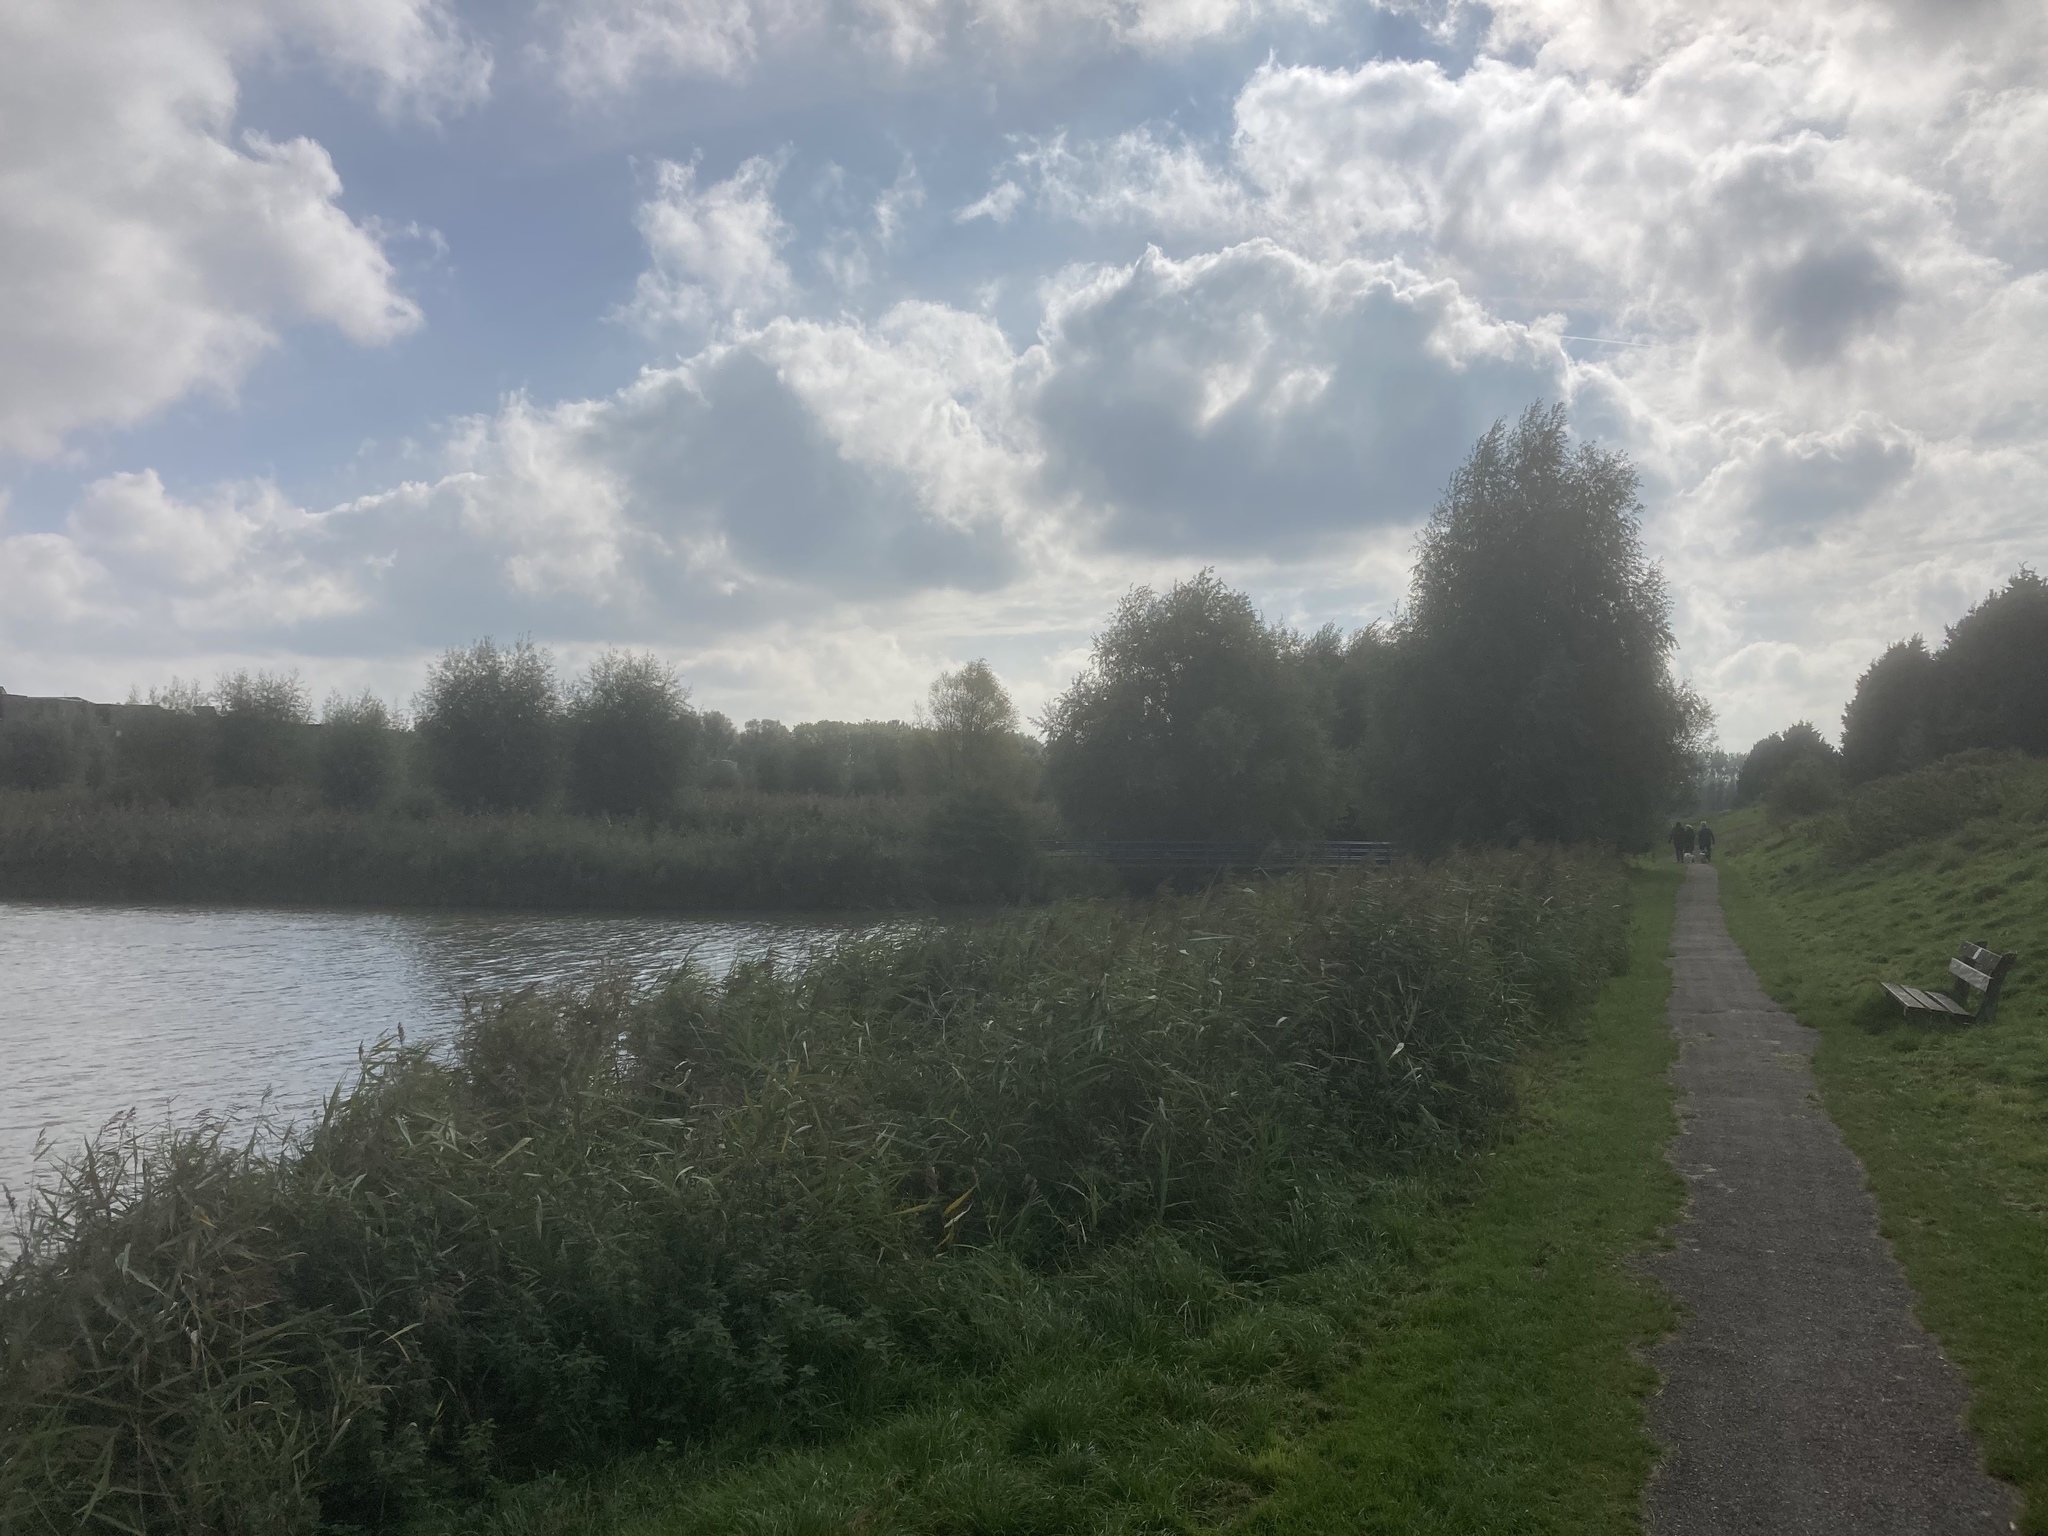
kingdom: Plantae
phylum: Tracheophyta
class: Liliopsida
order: Poales
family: Poaceae
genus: Phragmites
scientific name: Phragmites australis
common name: Common reed
